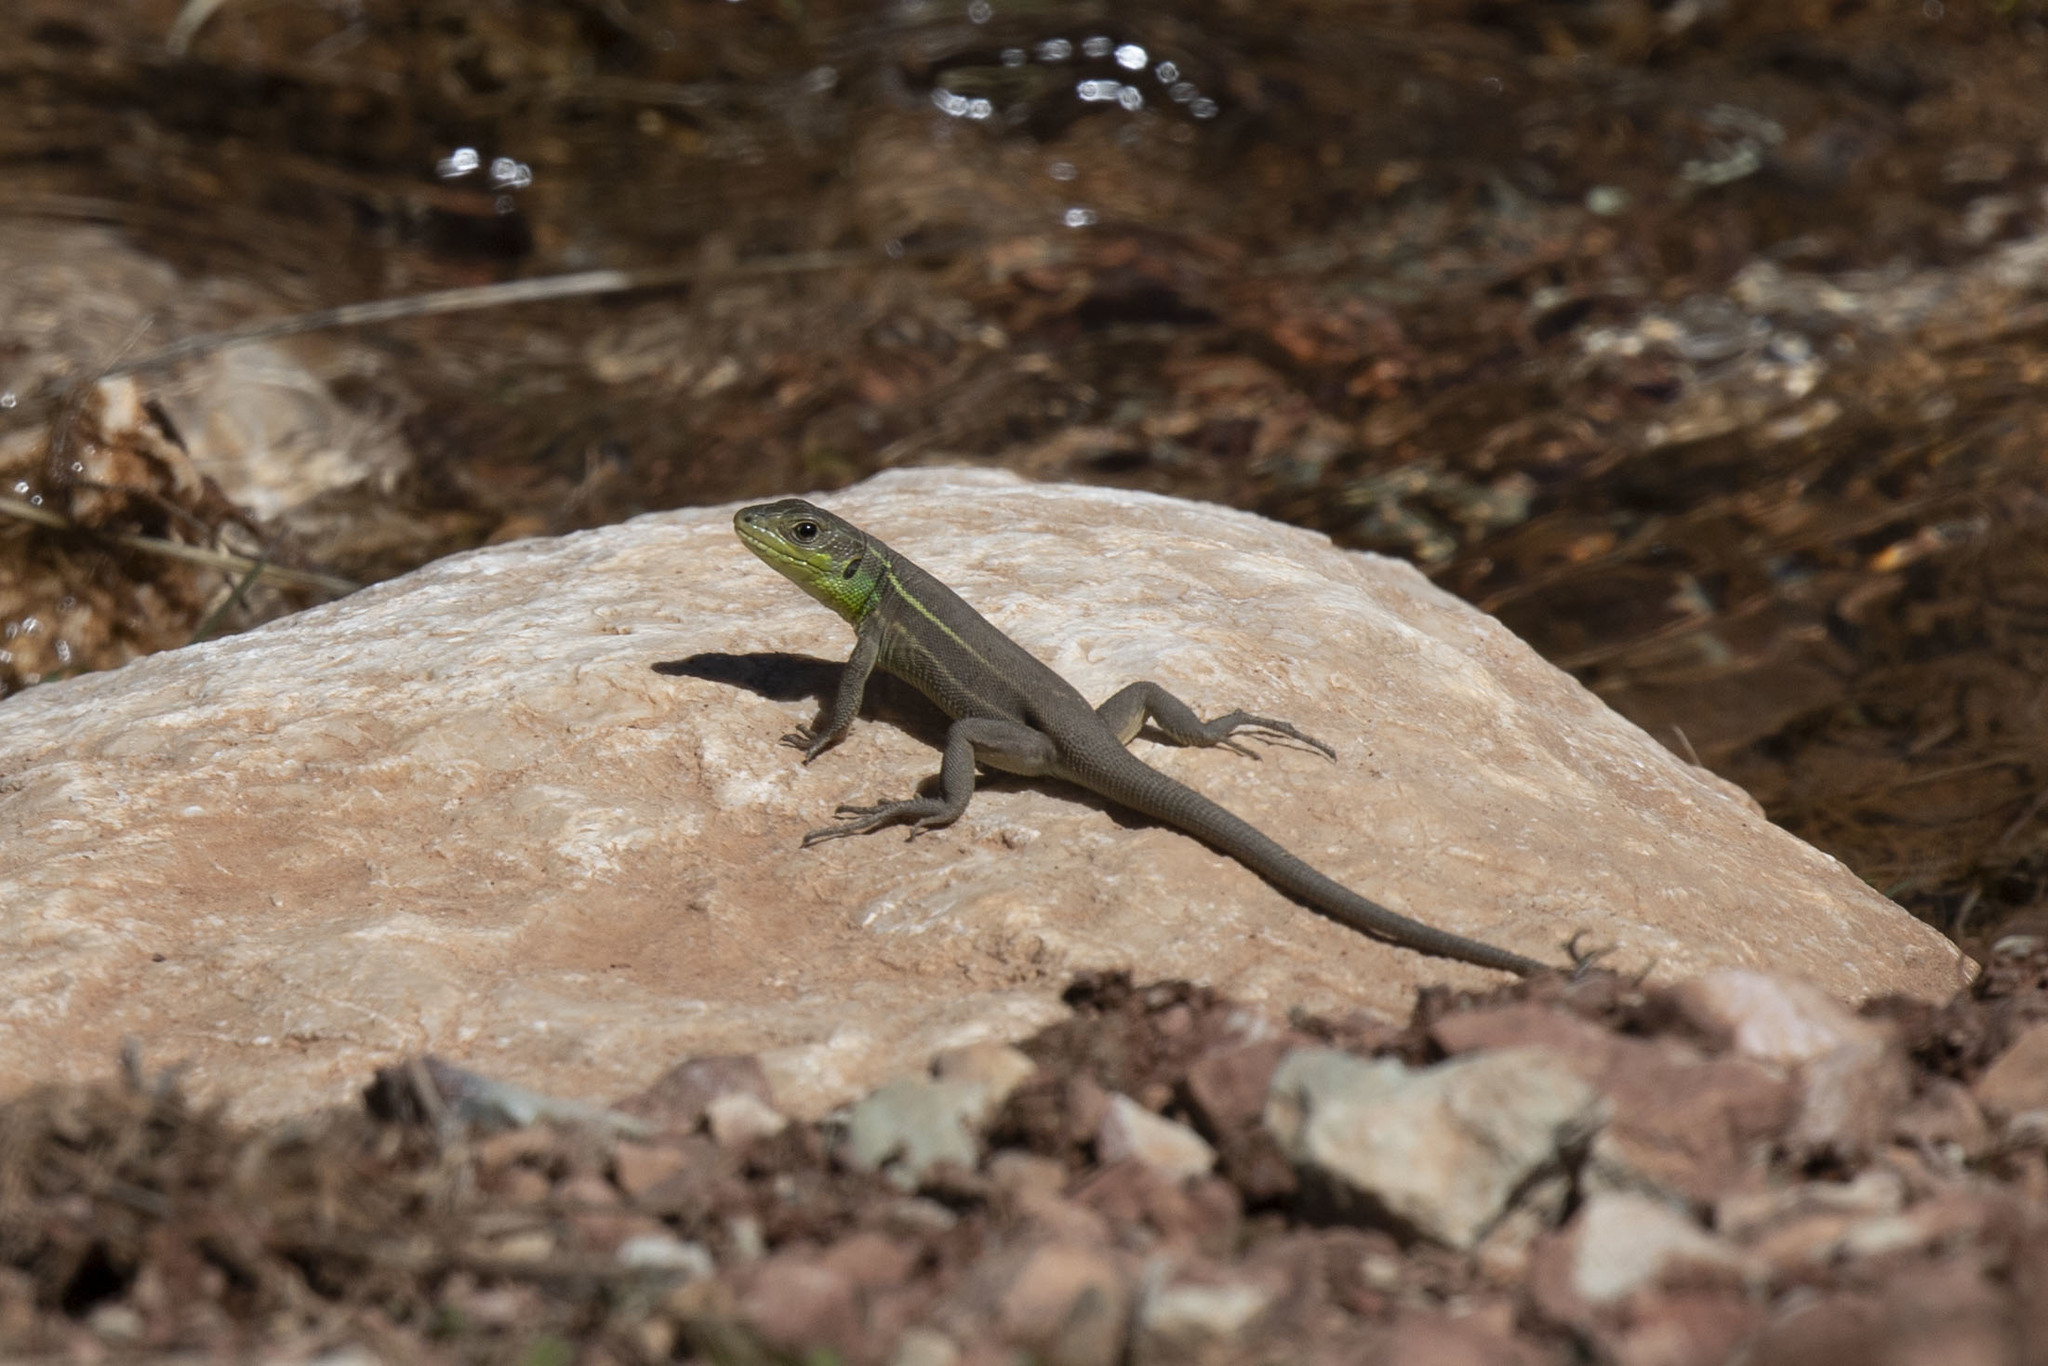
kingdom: Animalia
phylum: Chordata
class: Squamata
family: Lacertidae
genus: Lacerta
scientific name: Lacerta diplochondrodes
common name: Rhodos green lizard
